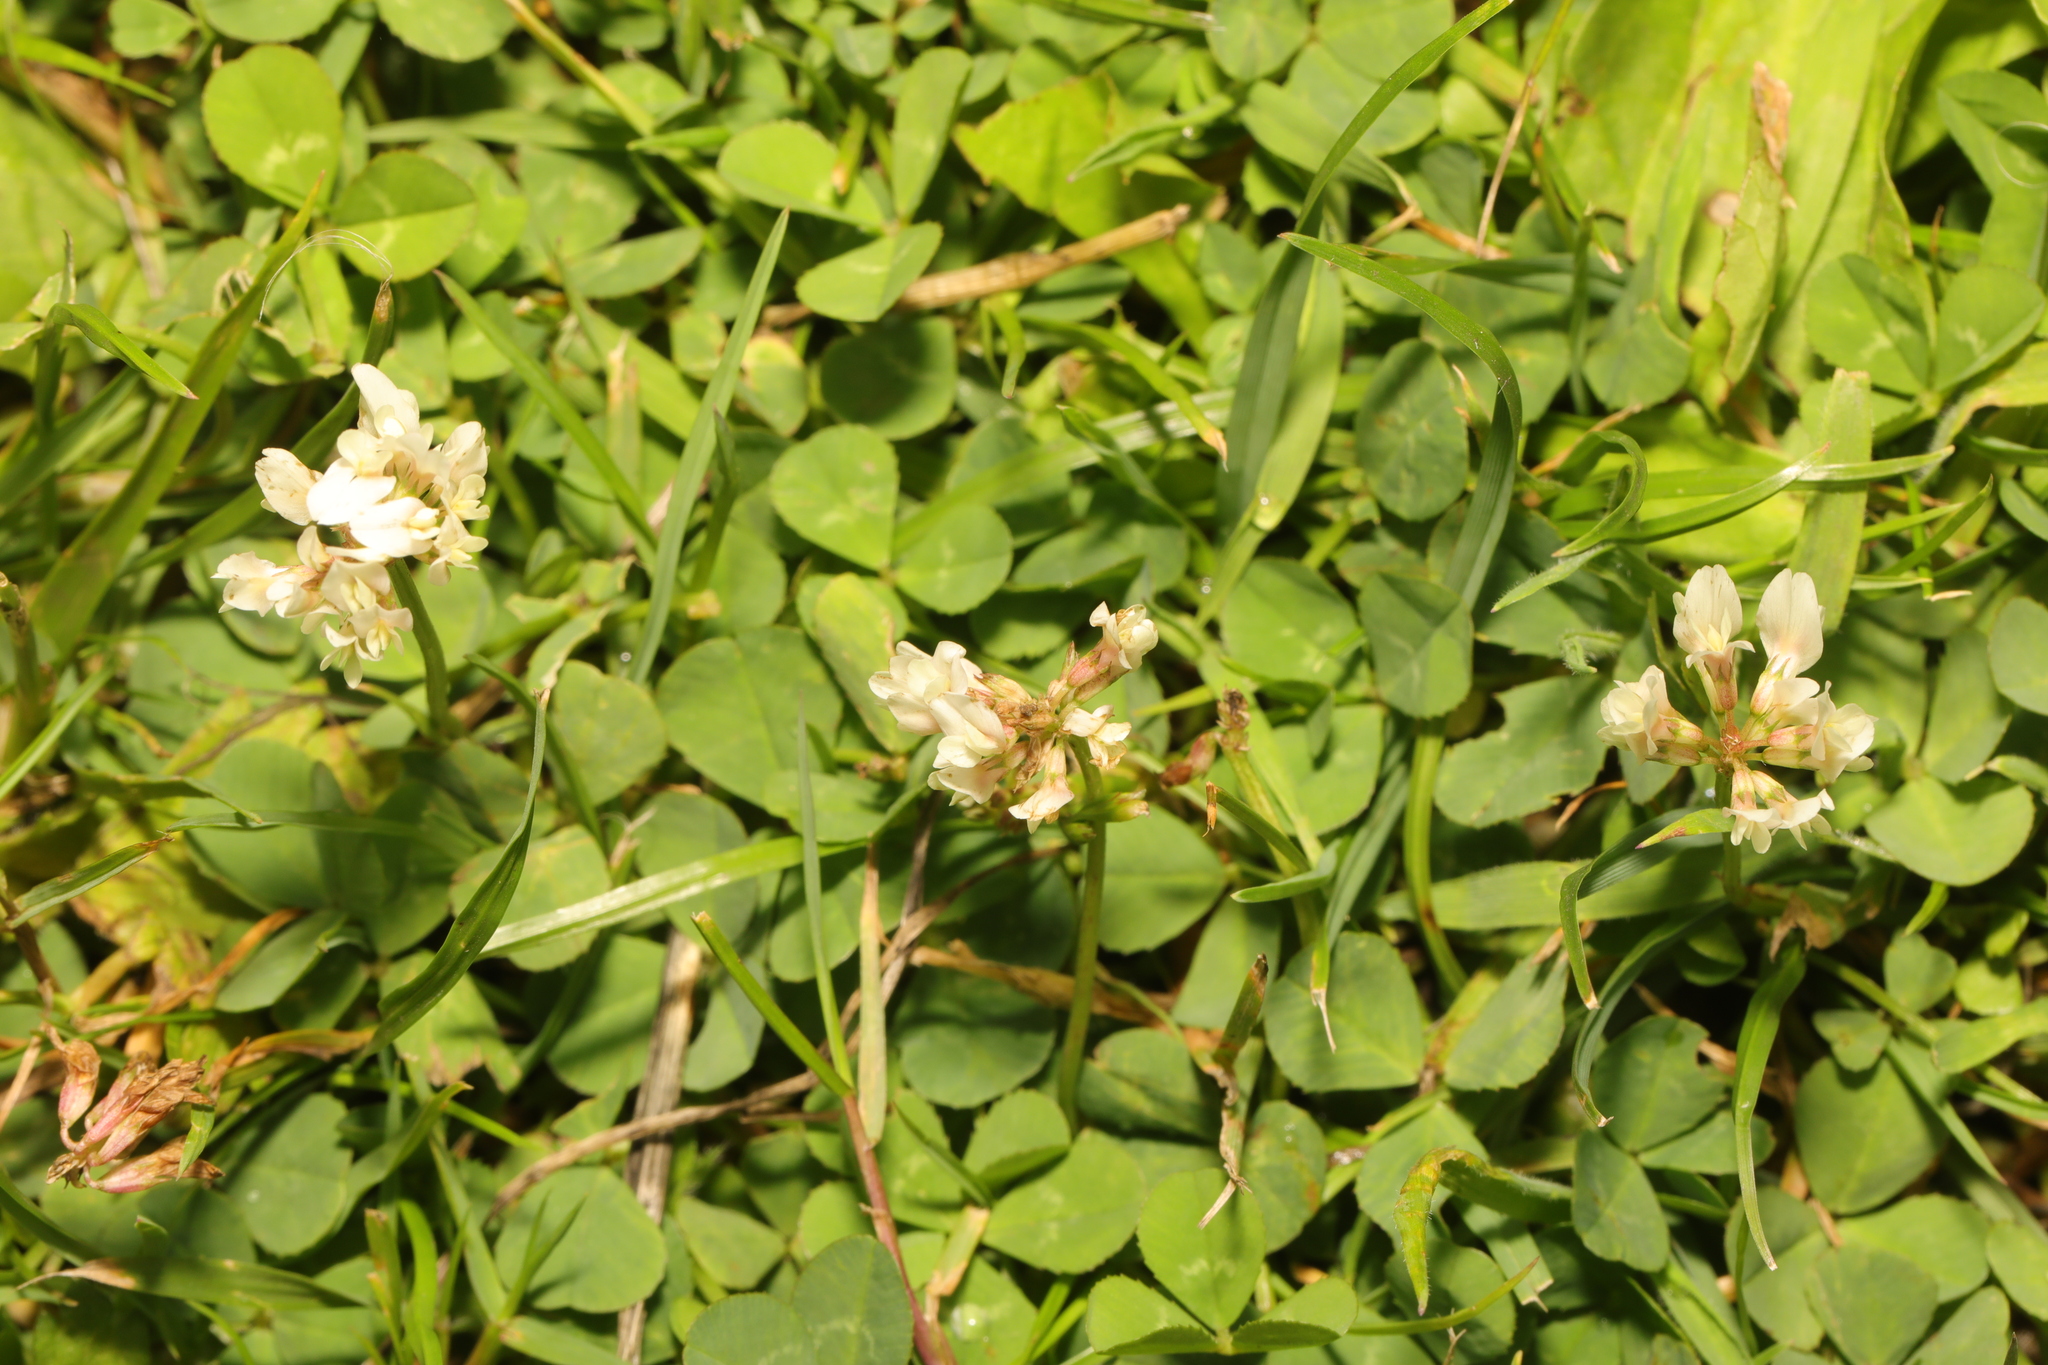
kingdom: Plantae
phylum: Tracheophyta
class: Magnoliopsida
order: Fabales
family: Fabaceae
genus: Trifolium
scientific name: Trifolium repens
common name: White clover
